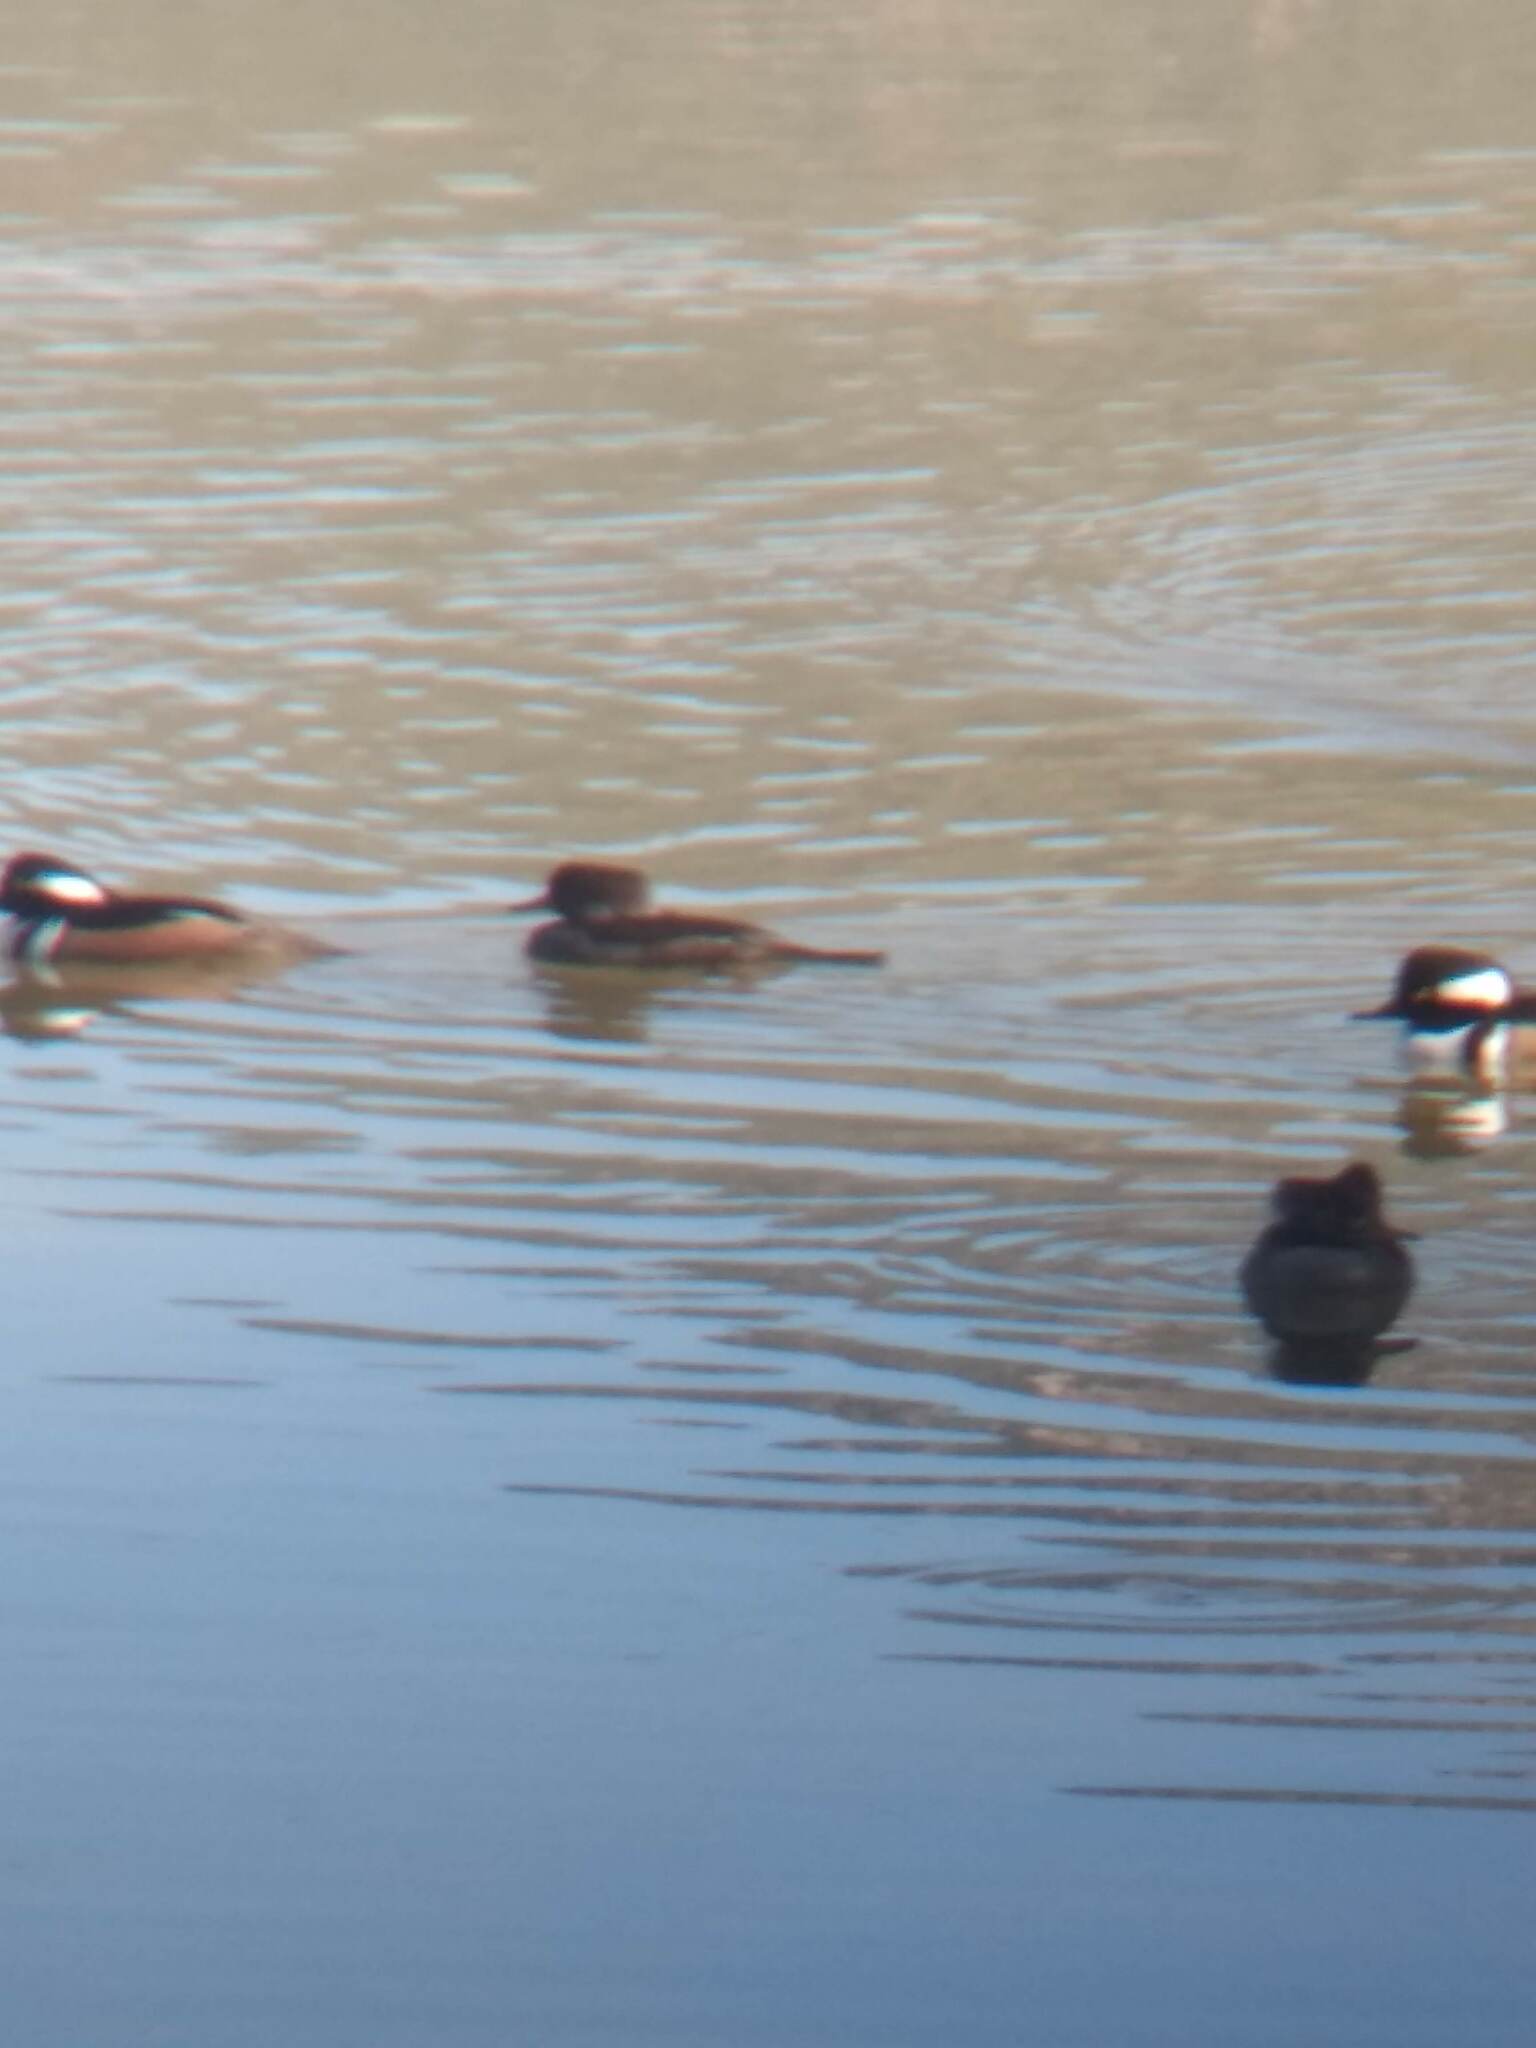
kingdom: Animalia
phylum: Chordata
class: Aves
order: Anseriformes
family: Anatidae
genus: Lophodytes
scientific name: Lophodytes cucullatus
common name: Hooded merganser
